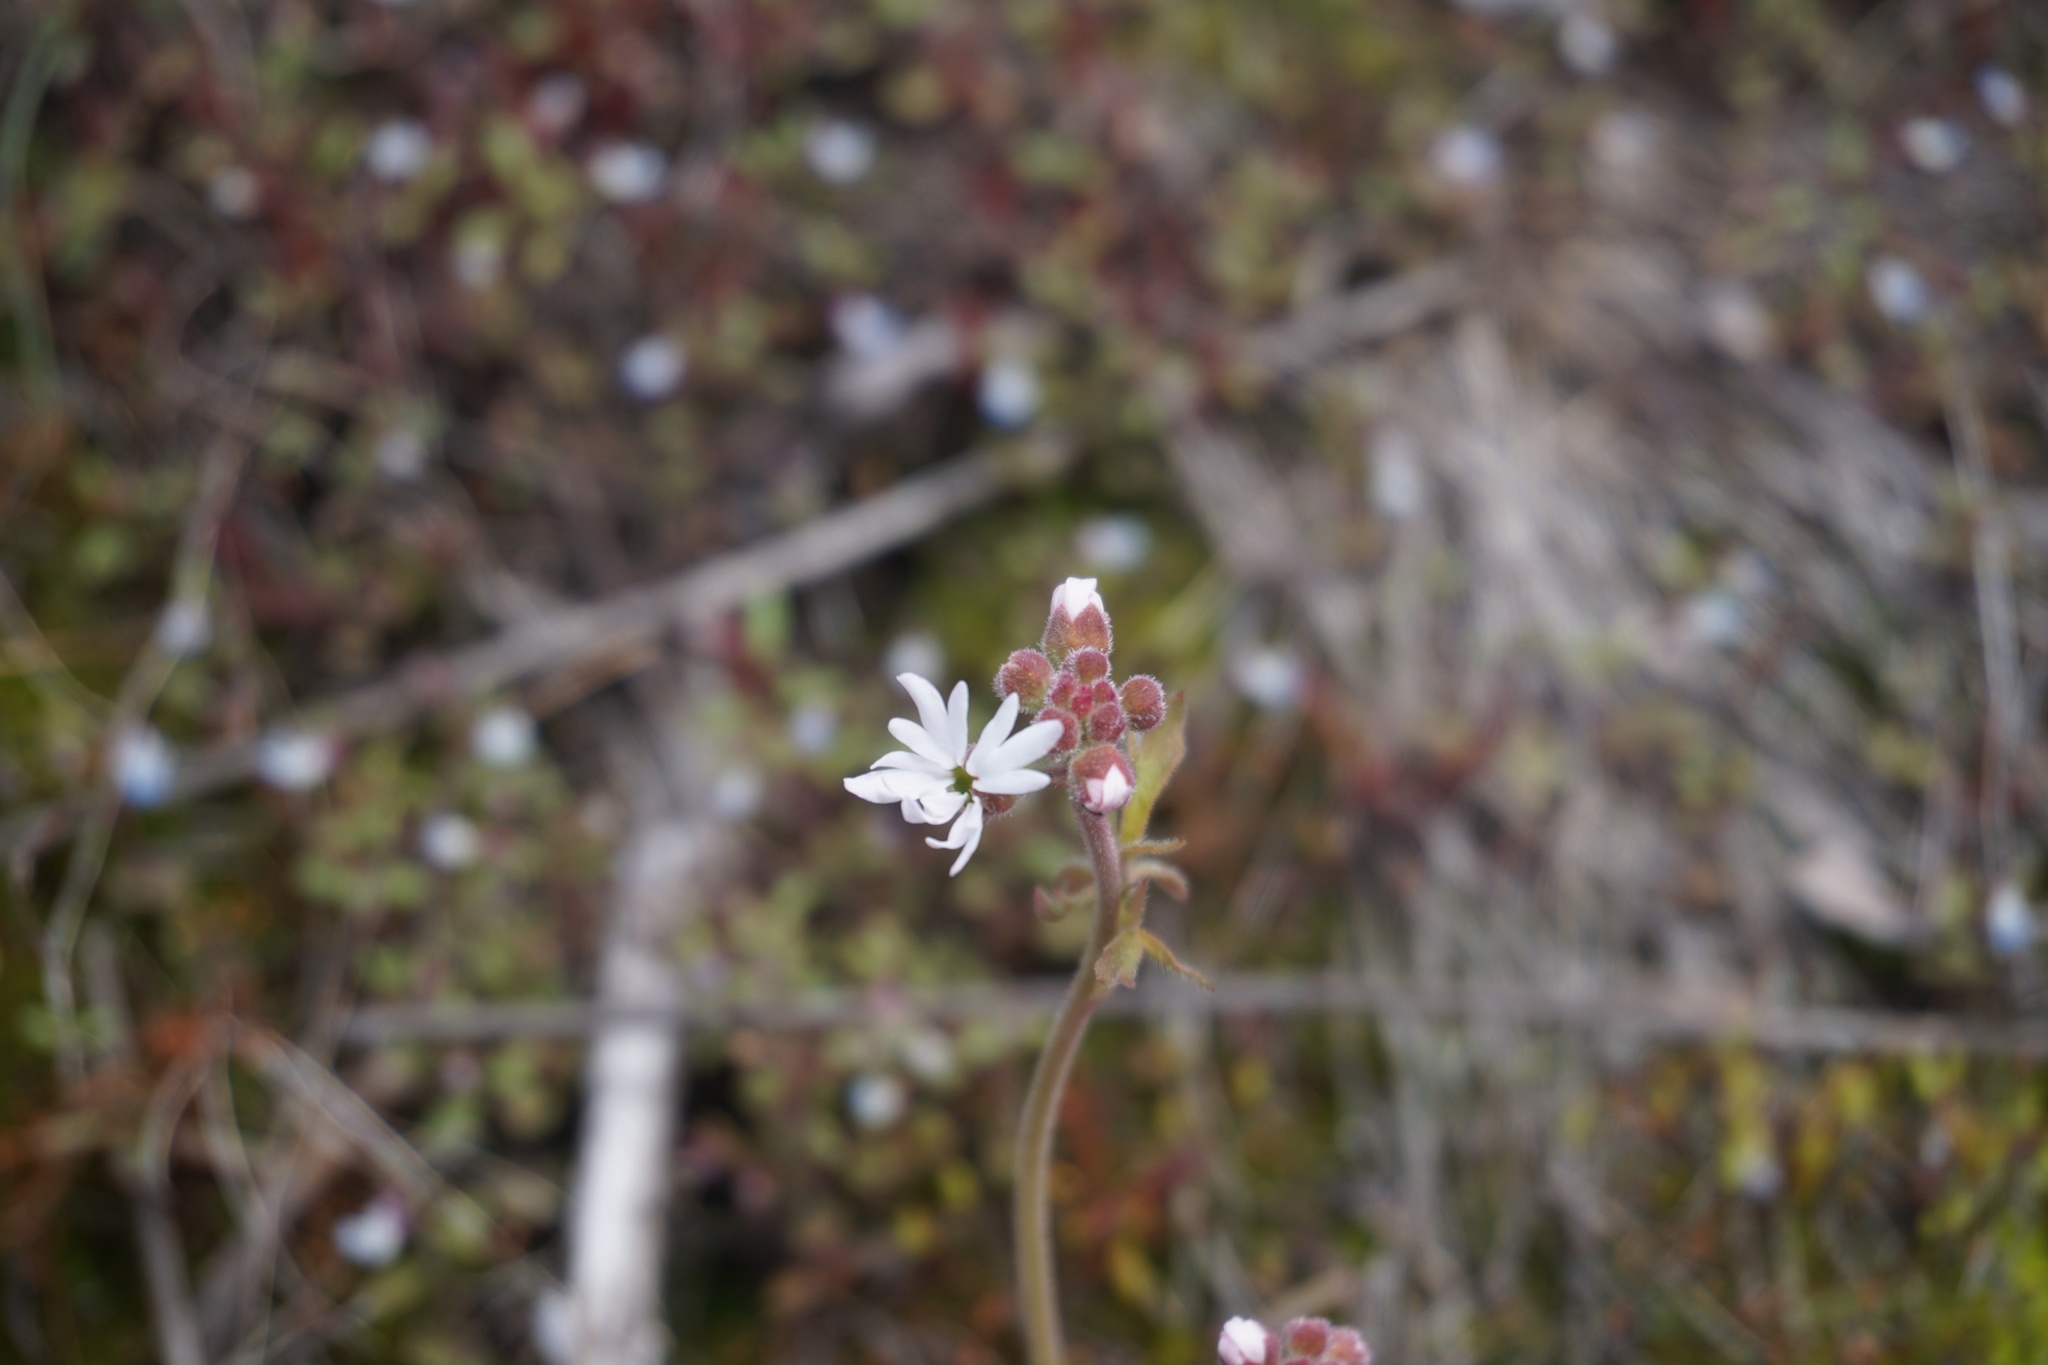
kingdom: Plantae
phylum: Tracheophyta
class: Magnoliopsida
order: Saxifragales
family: Saxifragaceae
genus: Lithophragma
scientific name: Lithophragma parviflorum
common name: Small-flowered fringe-cup
